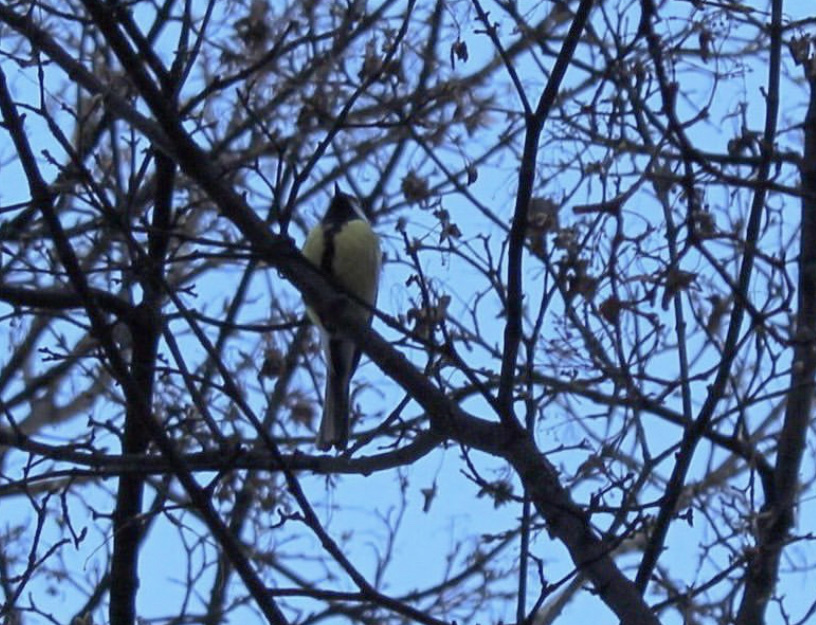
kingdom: Animalia
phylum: Chordata
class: Aves
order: Passeriformes
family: Paridae
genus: Parus
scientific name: Parus major
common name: Great tit
